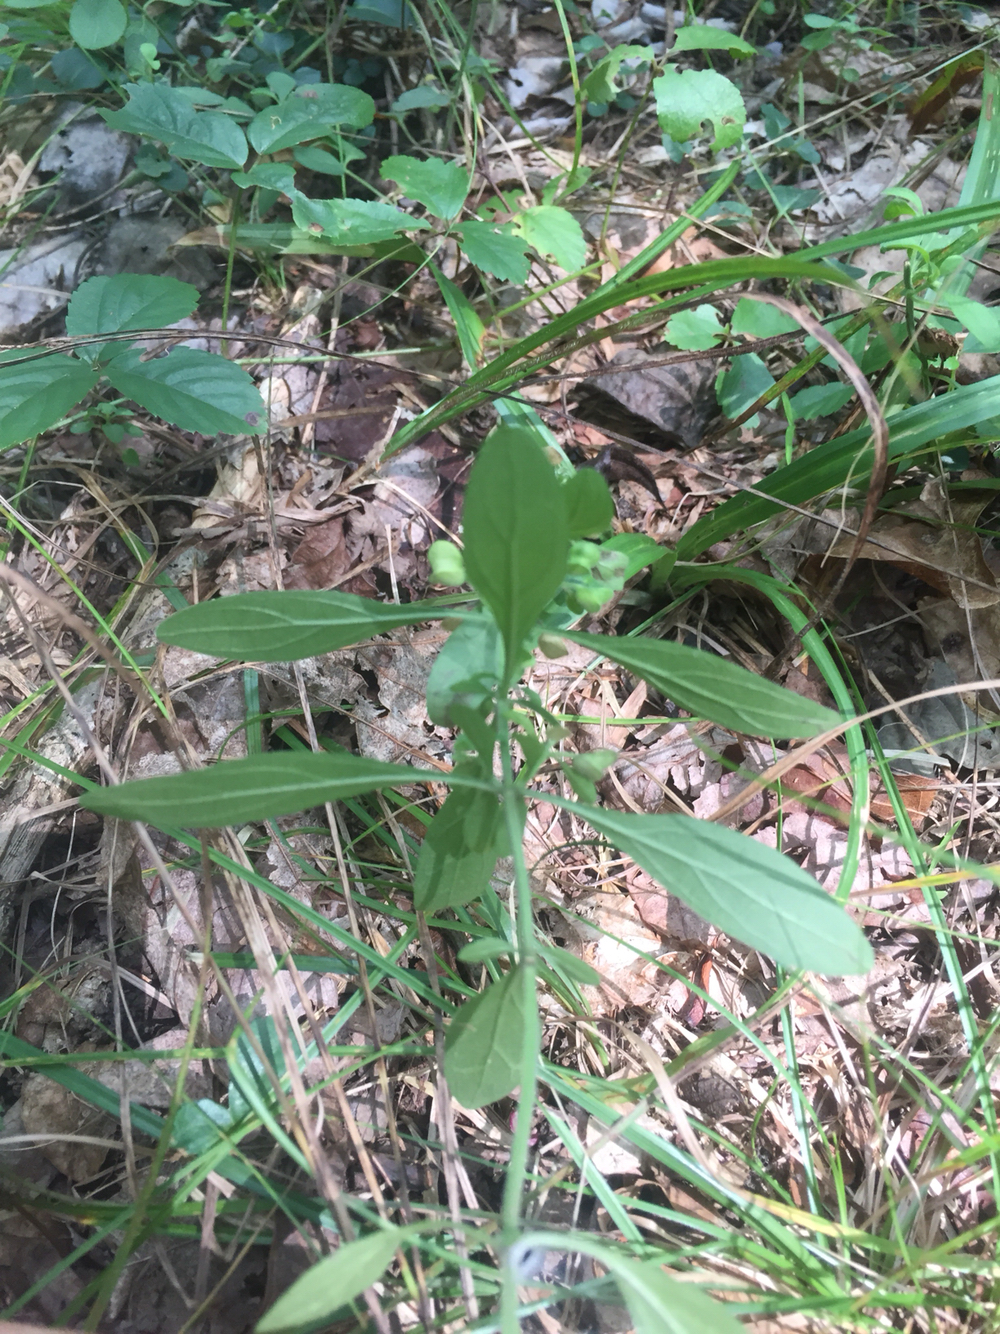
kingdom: Plantae
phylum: Tracheophyta
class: Magnoliopsida
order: Lamiales
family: Lamiaceae
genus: Scutellaria
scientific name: Scutellaria integrifolia
